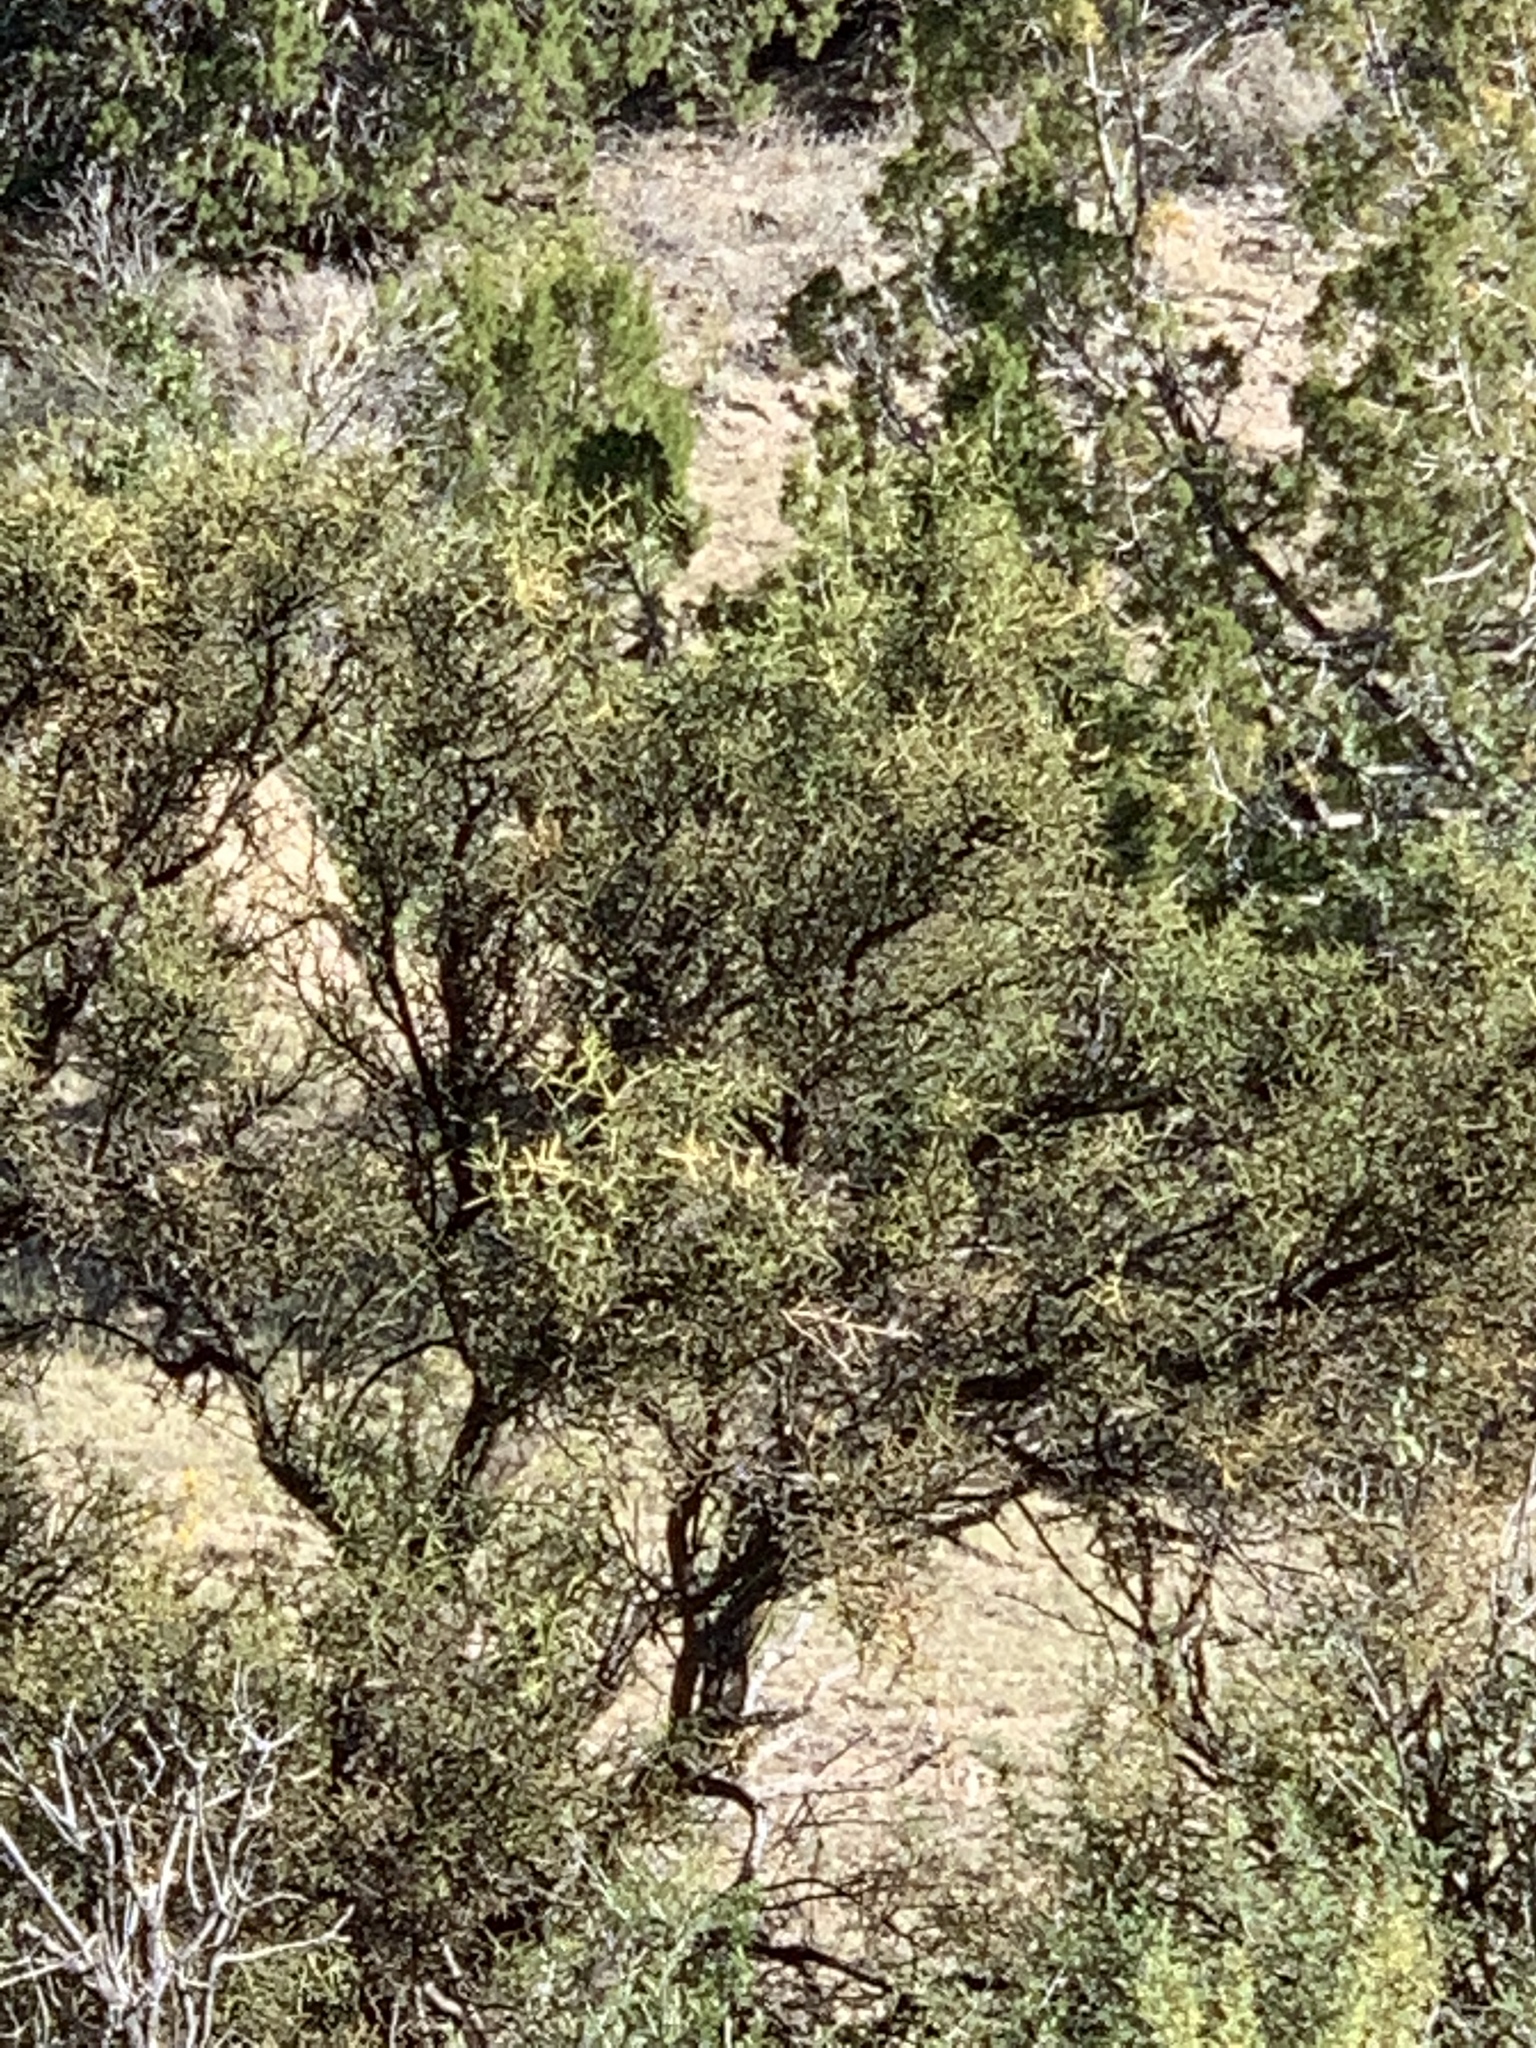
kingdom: Plantae
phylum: Tracheophyta
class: Magnoliopsida
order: Brassicales
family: Koeberliniaceae
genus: Koeberlinia
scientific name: Koeberlinia spinosa
